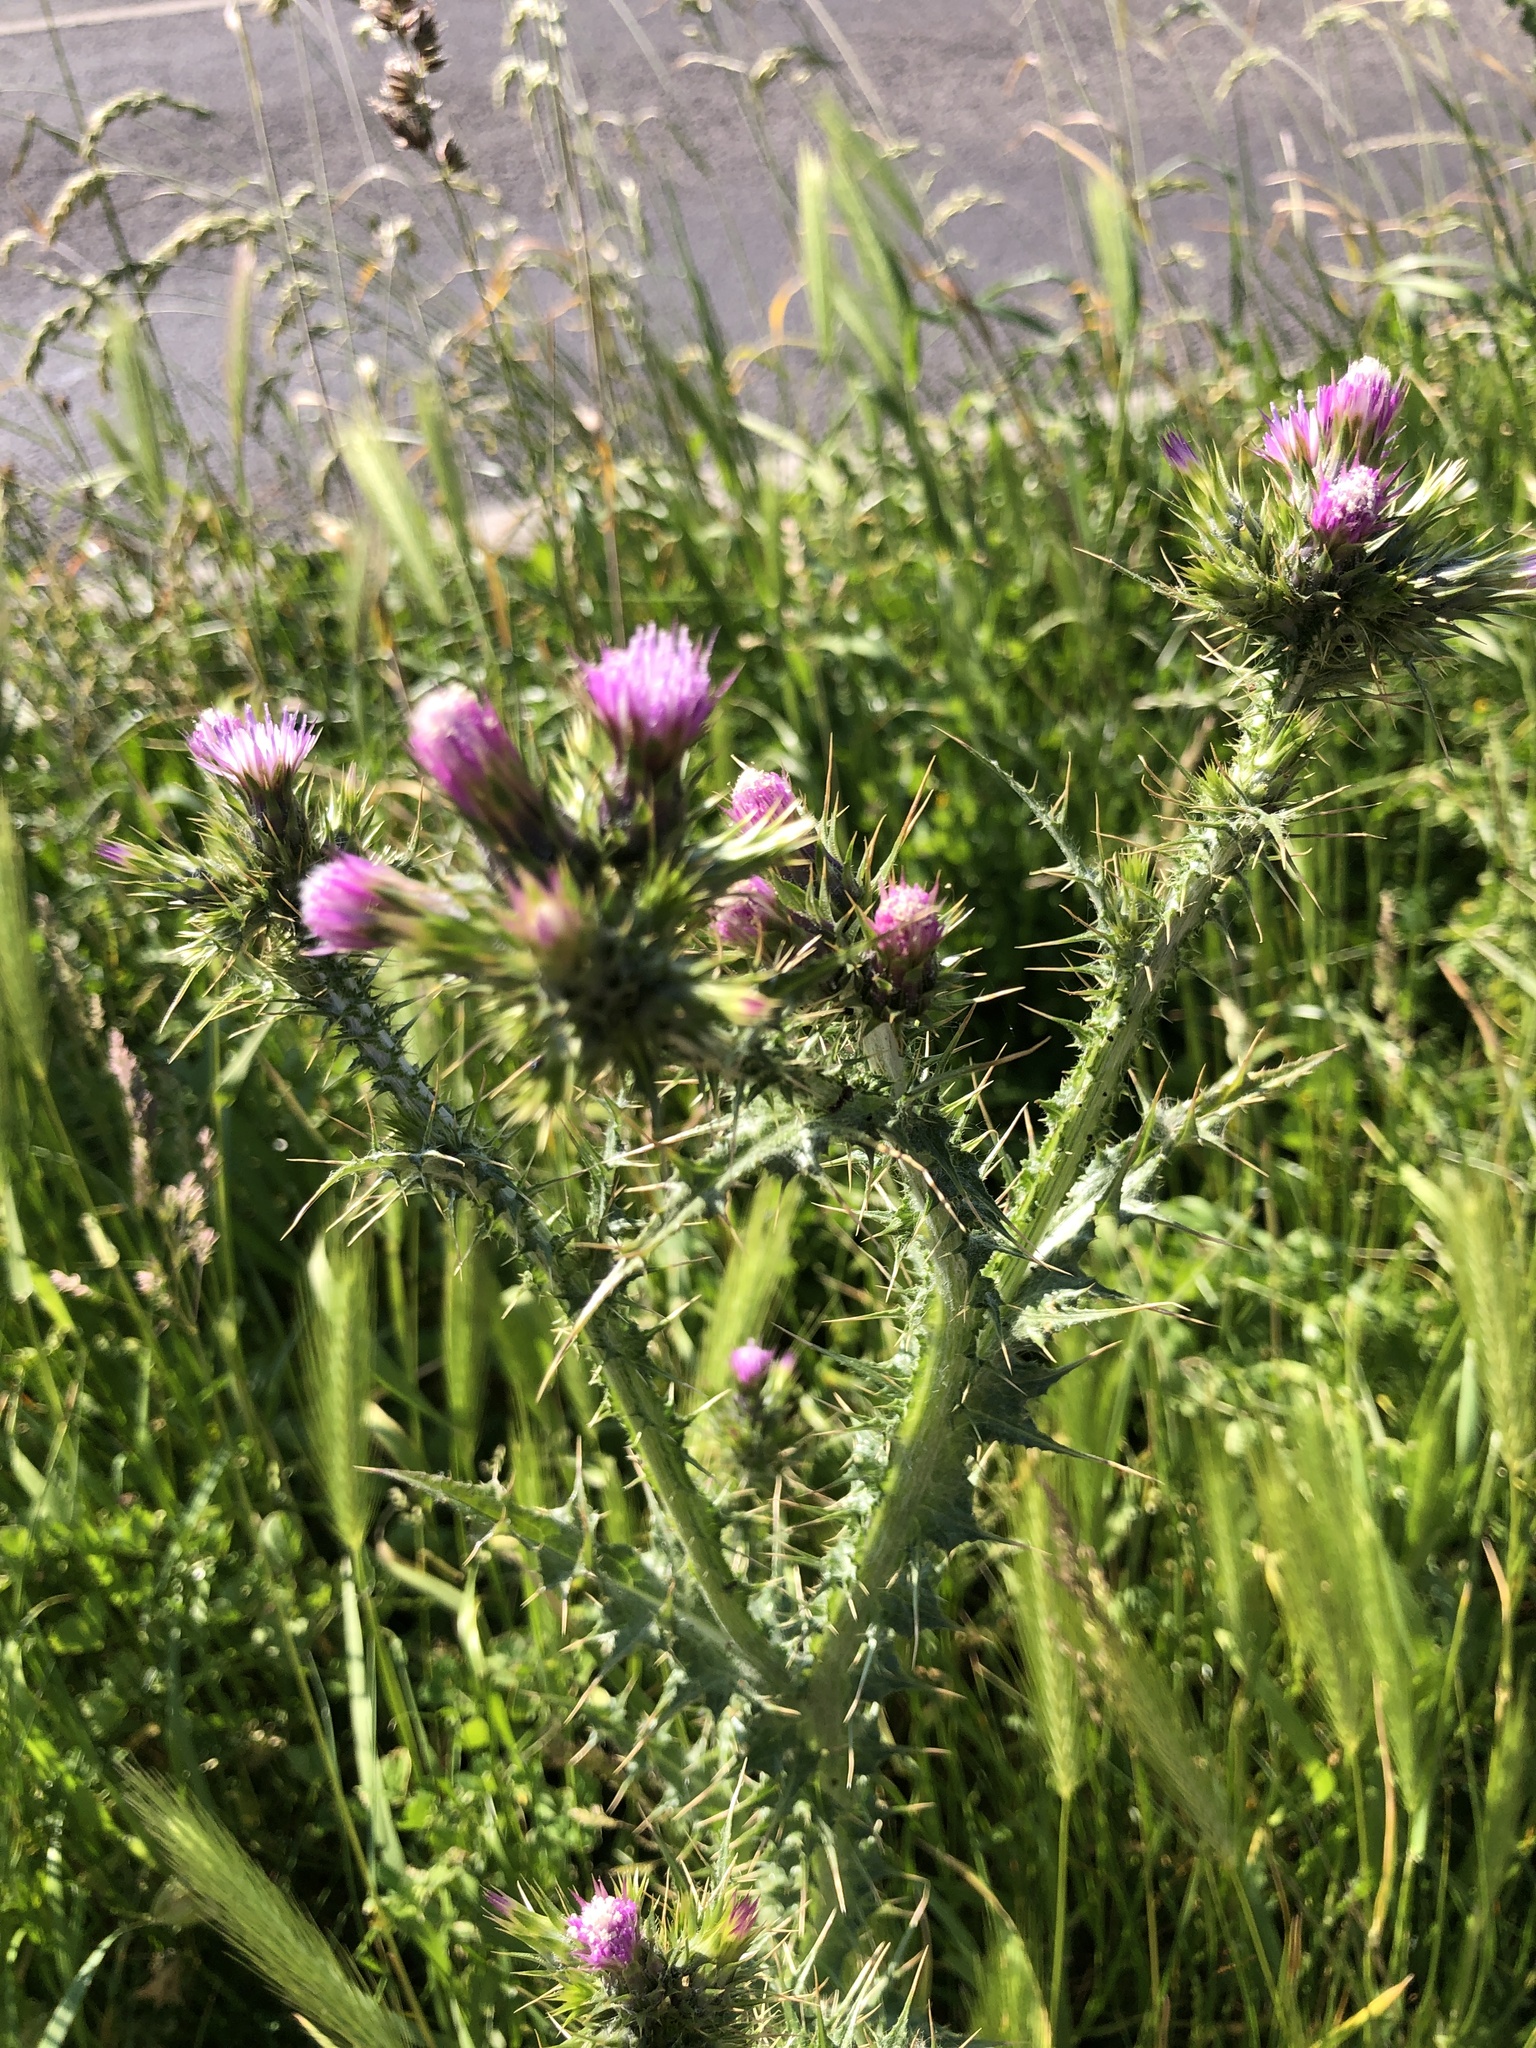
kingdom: Plantae
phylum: Tracheophyta
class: Magnoliopsida
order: Asterales
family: Asteraceae
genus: Carduus
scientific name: Carduus tenuiflorus
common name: Slender thistle
